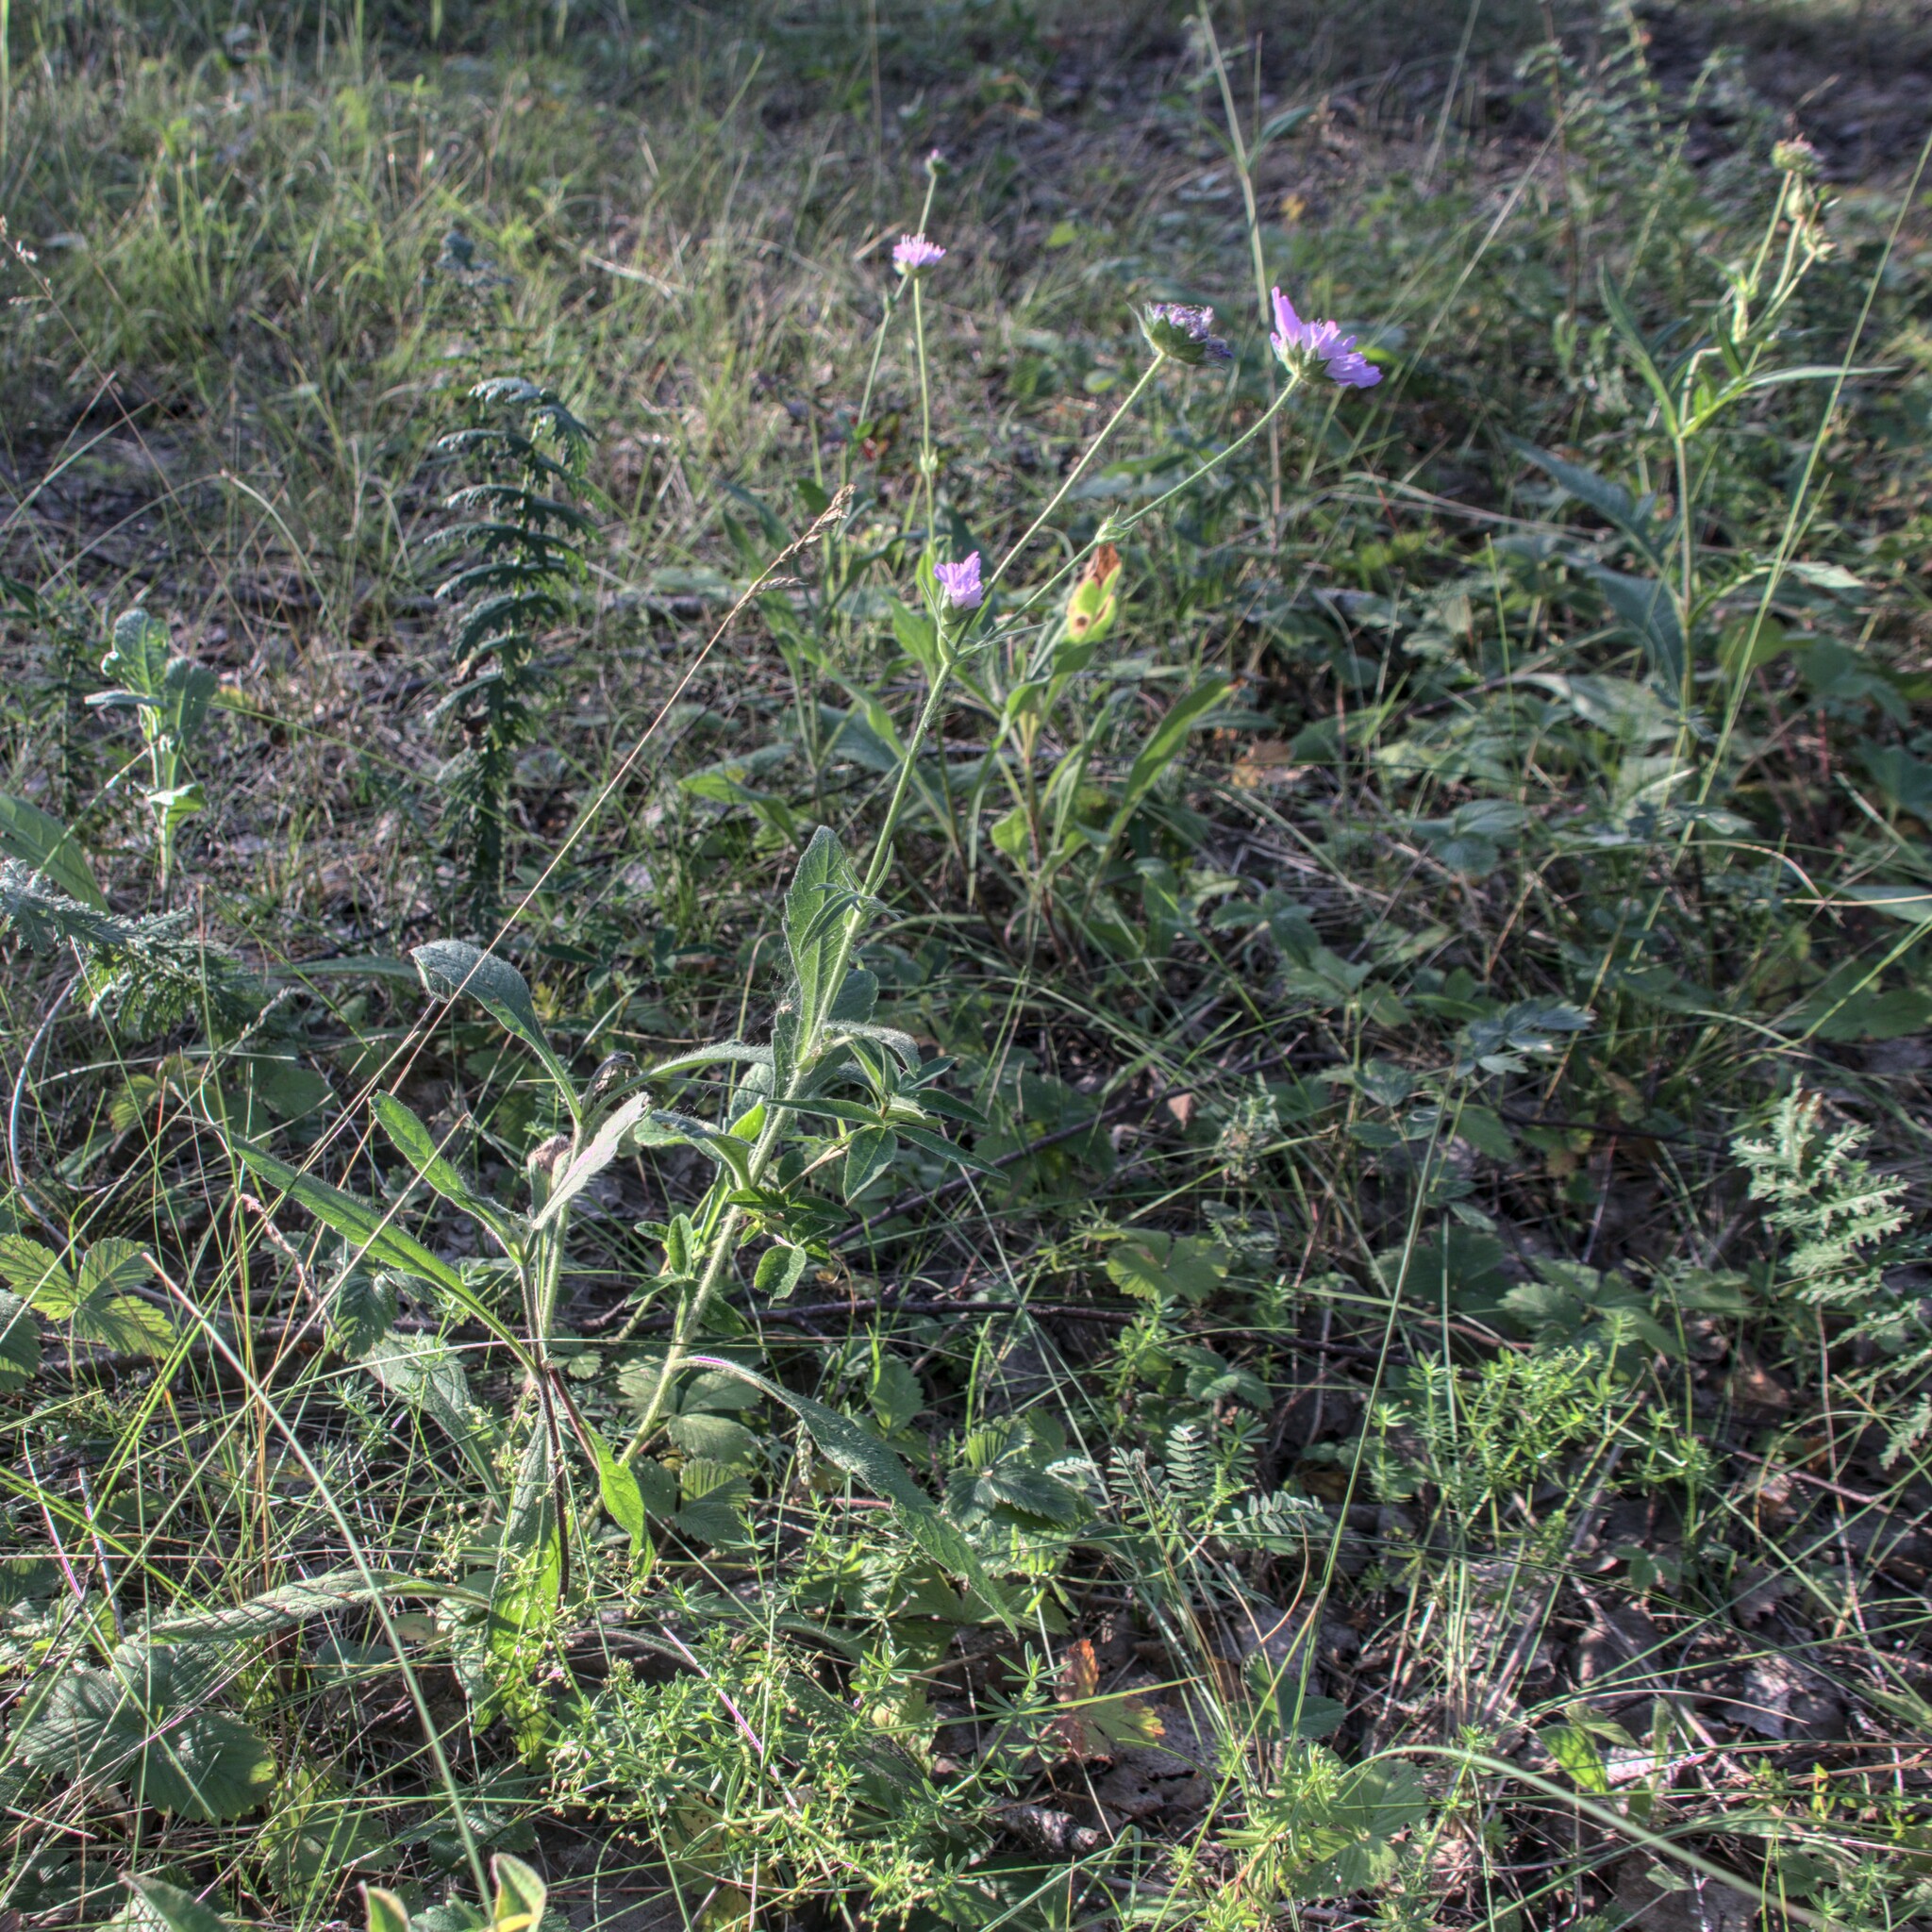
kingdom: Plantae
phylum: Tracheophyta
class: Magnoliopsida
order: Dipsacales
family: Caprifoliaceae
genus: Knautia
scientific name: Knautia arvensis
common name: Field scabiosa
